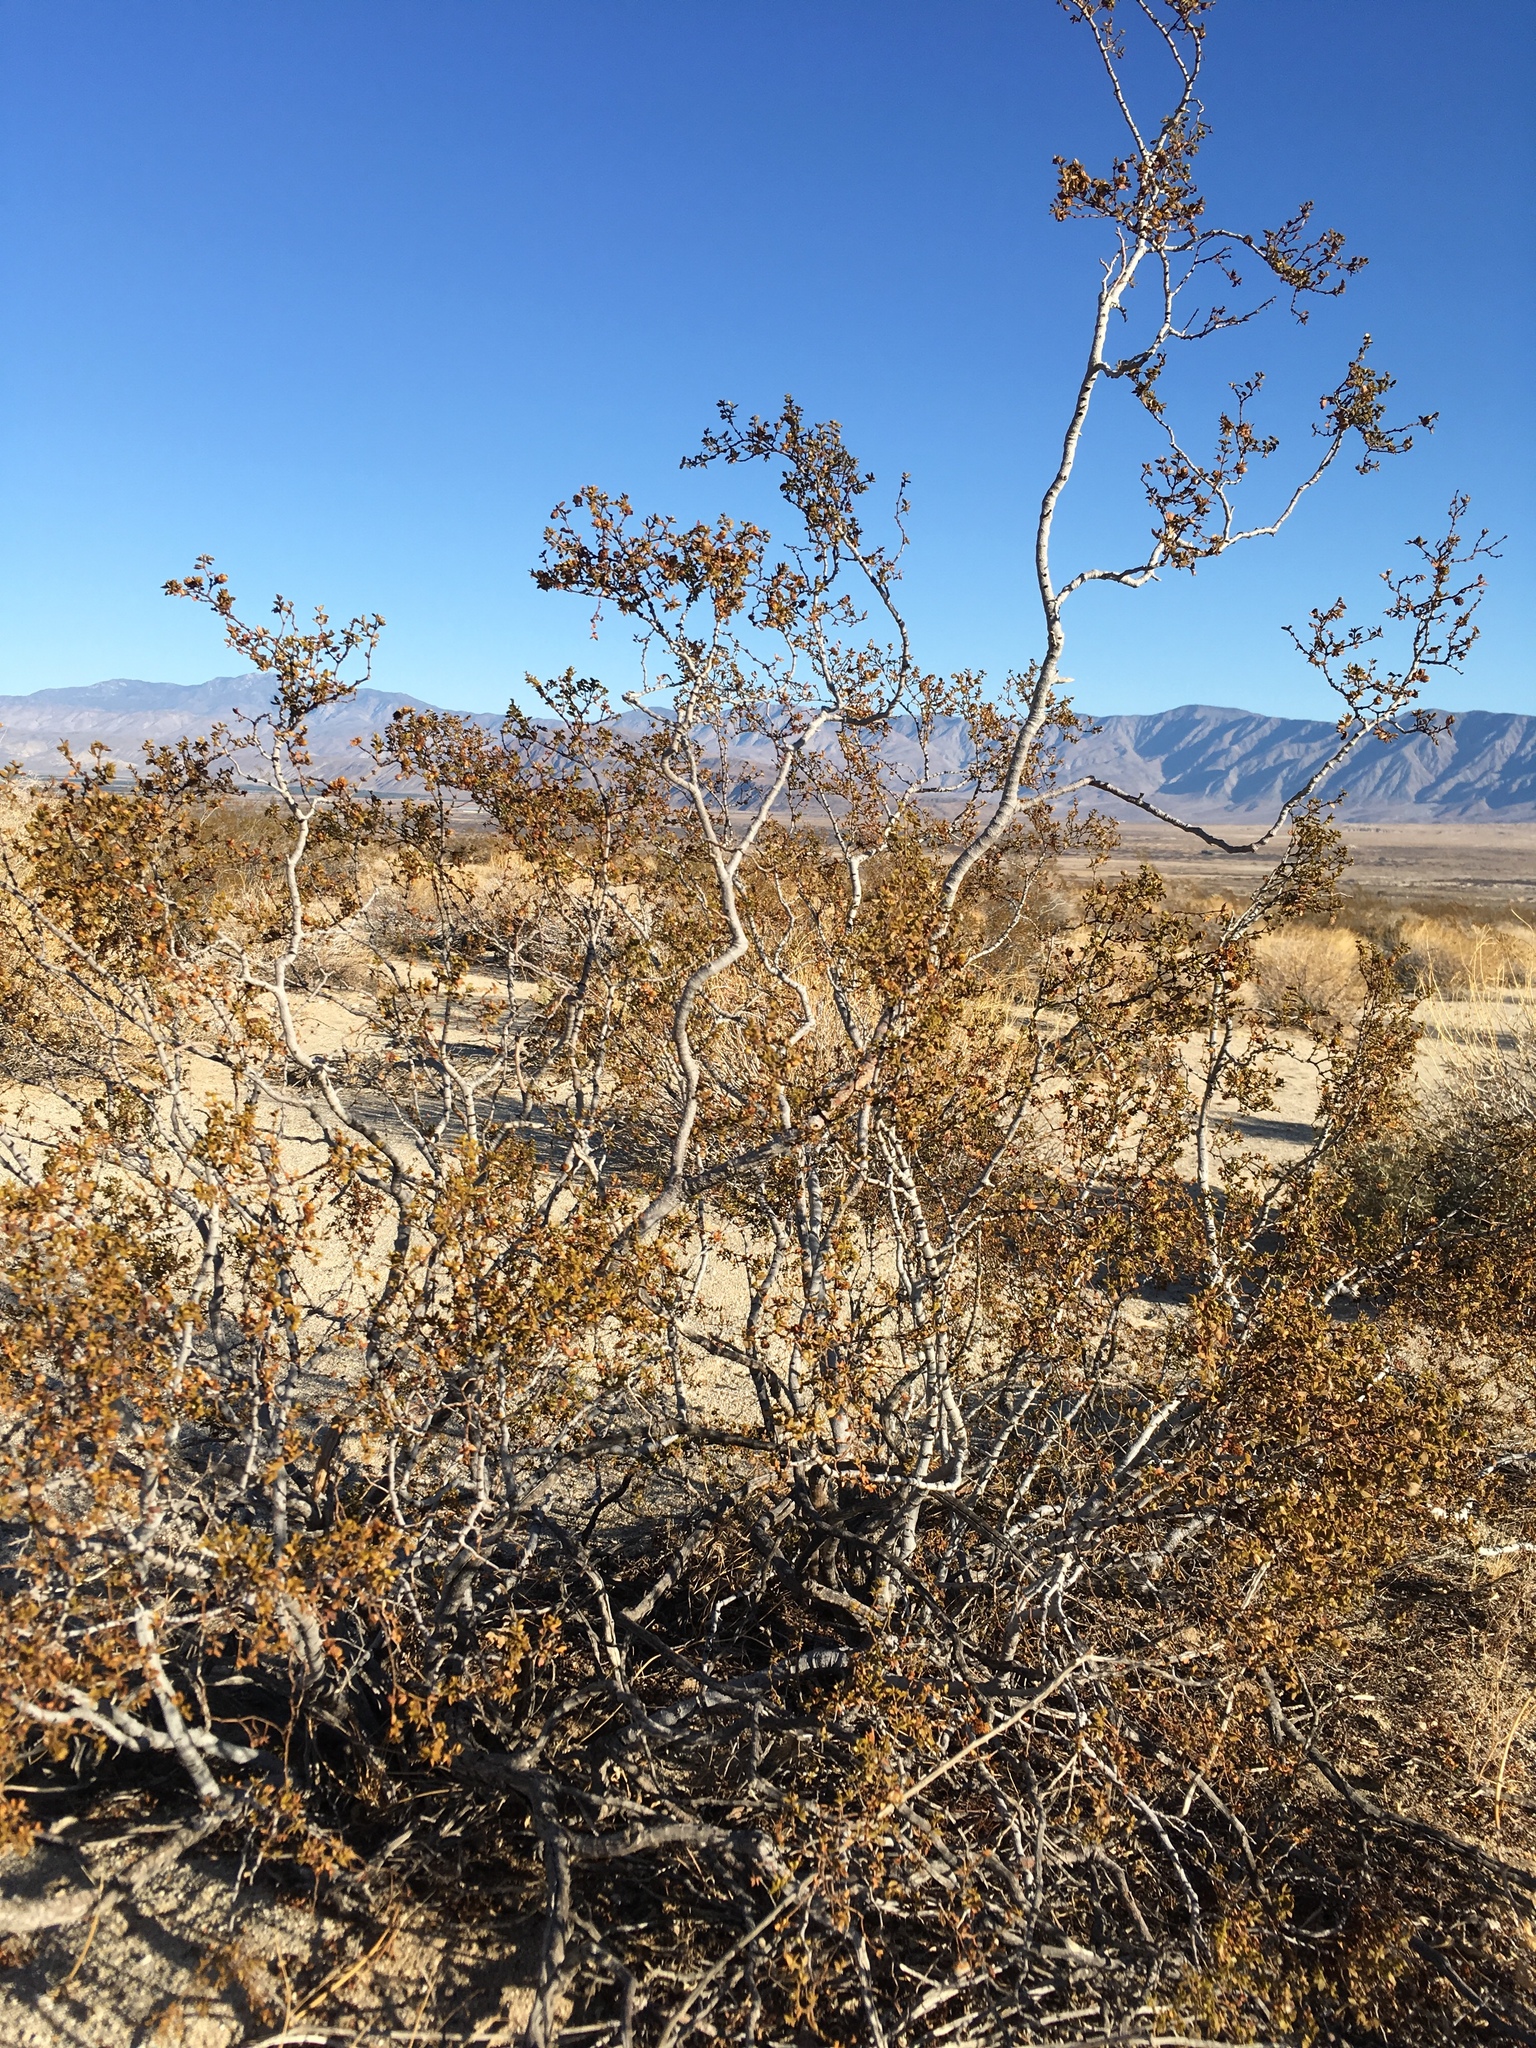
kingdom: Plantae
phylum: Tracheophyta
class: Magnoliopsida
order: Zygophyllales
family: Zygophyllaceae
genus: Larrea
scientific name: Larrea tridentata
